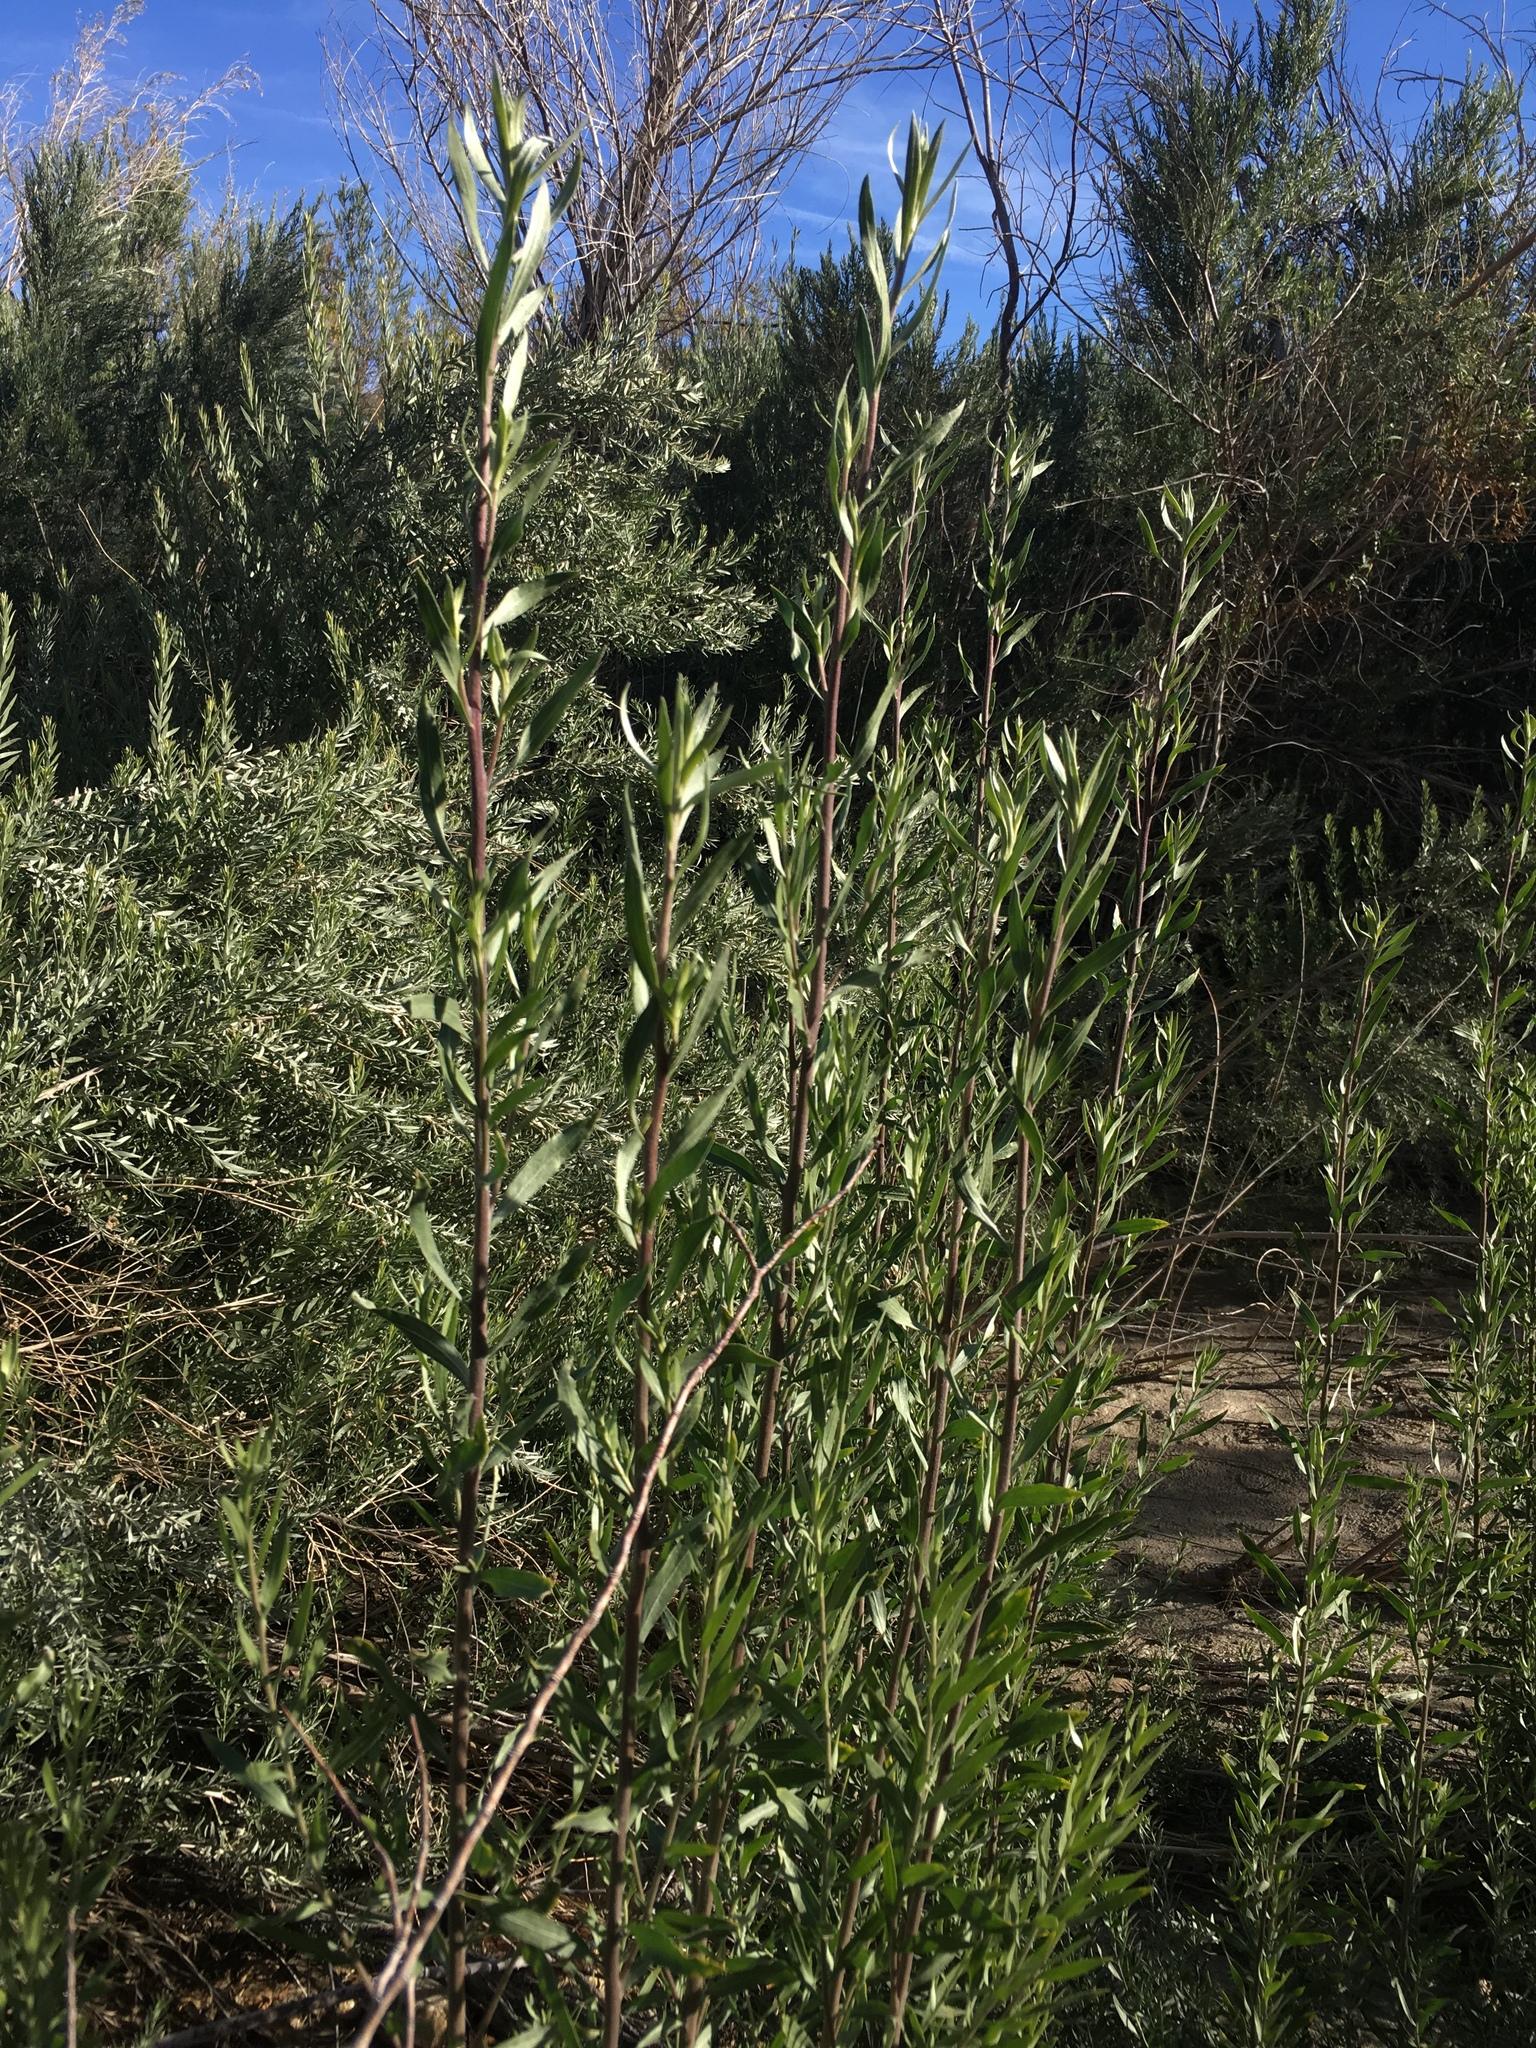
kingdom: Plantae
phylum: Tracheophyta
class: Magnoliopsida
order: Asterales
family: Asteraceae
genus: Pluchea
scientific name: Pluchea sericea
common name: Arrow-weed
